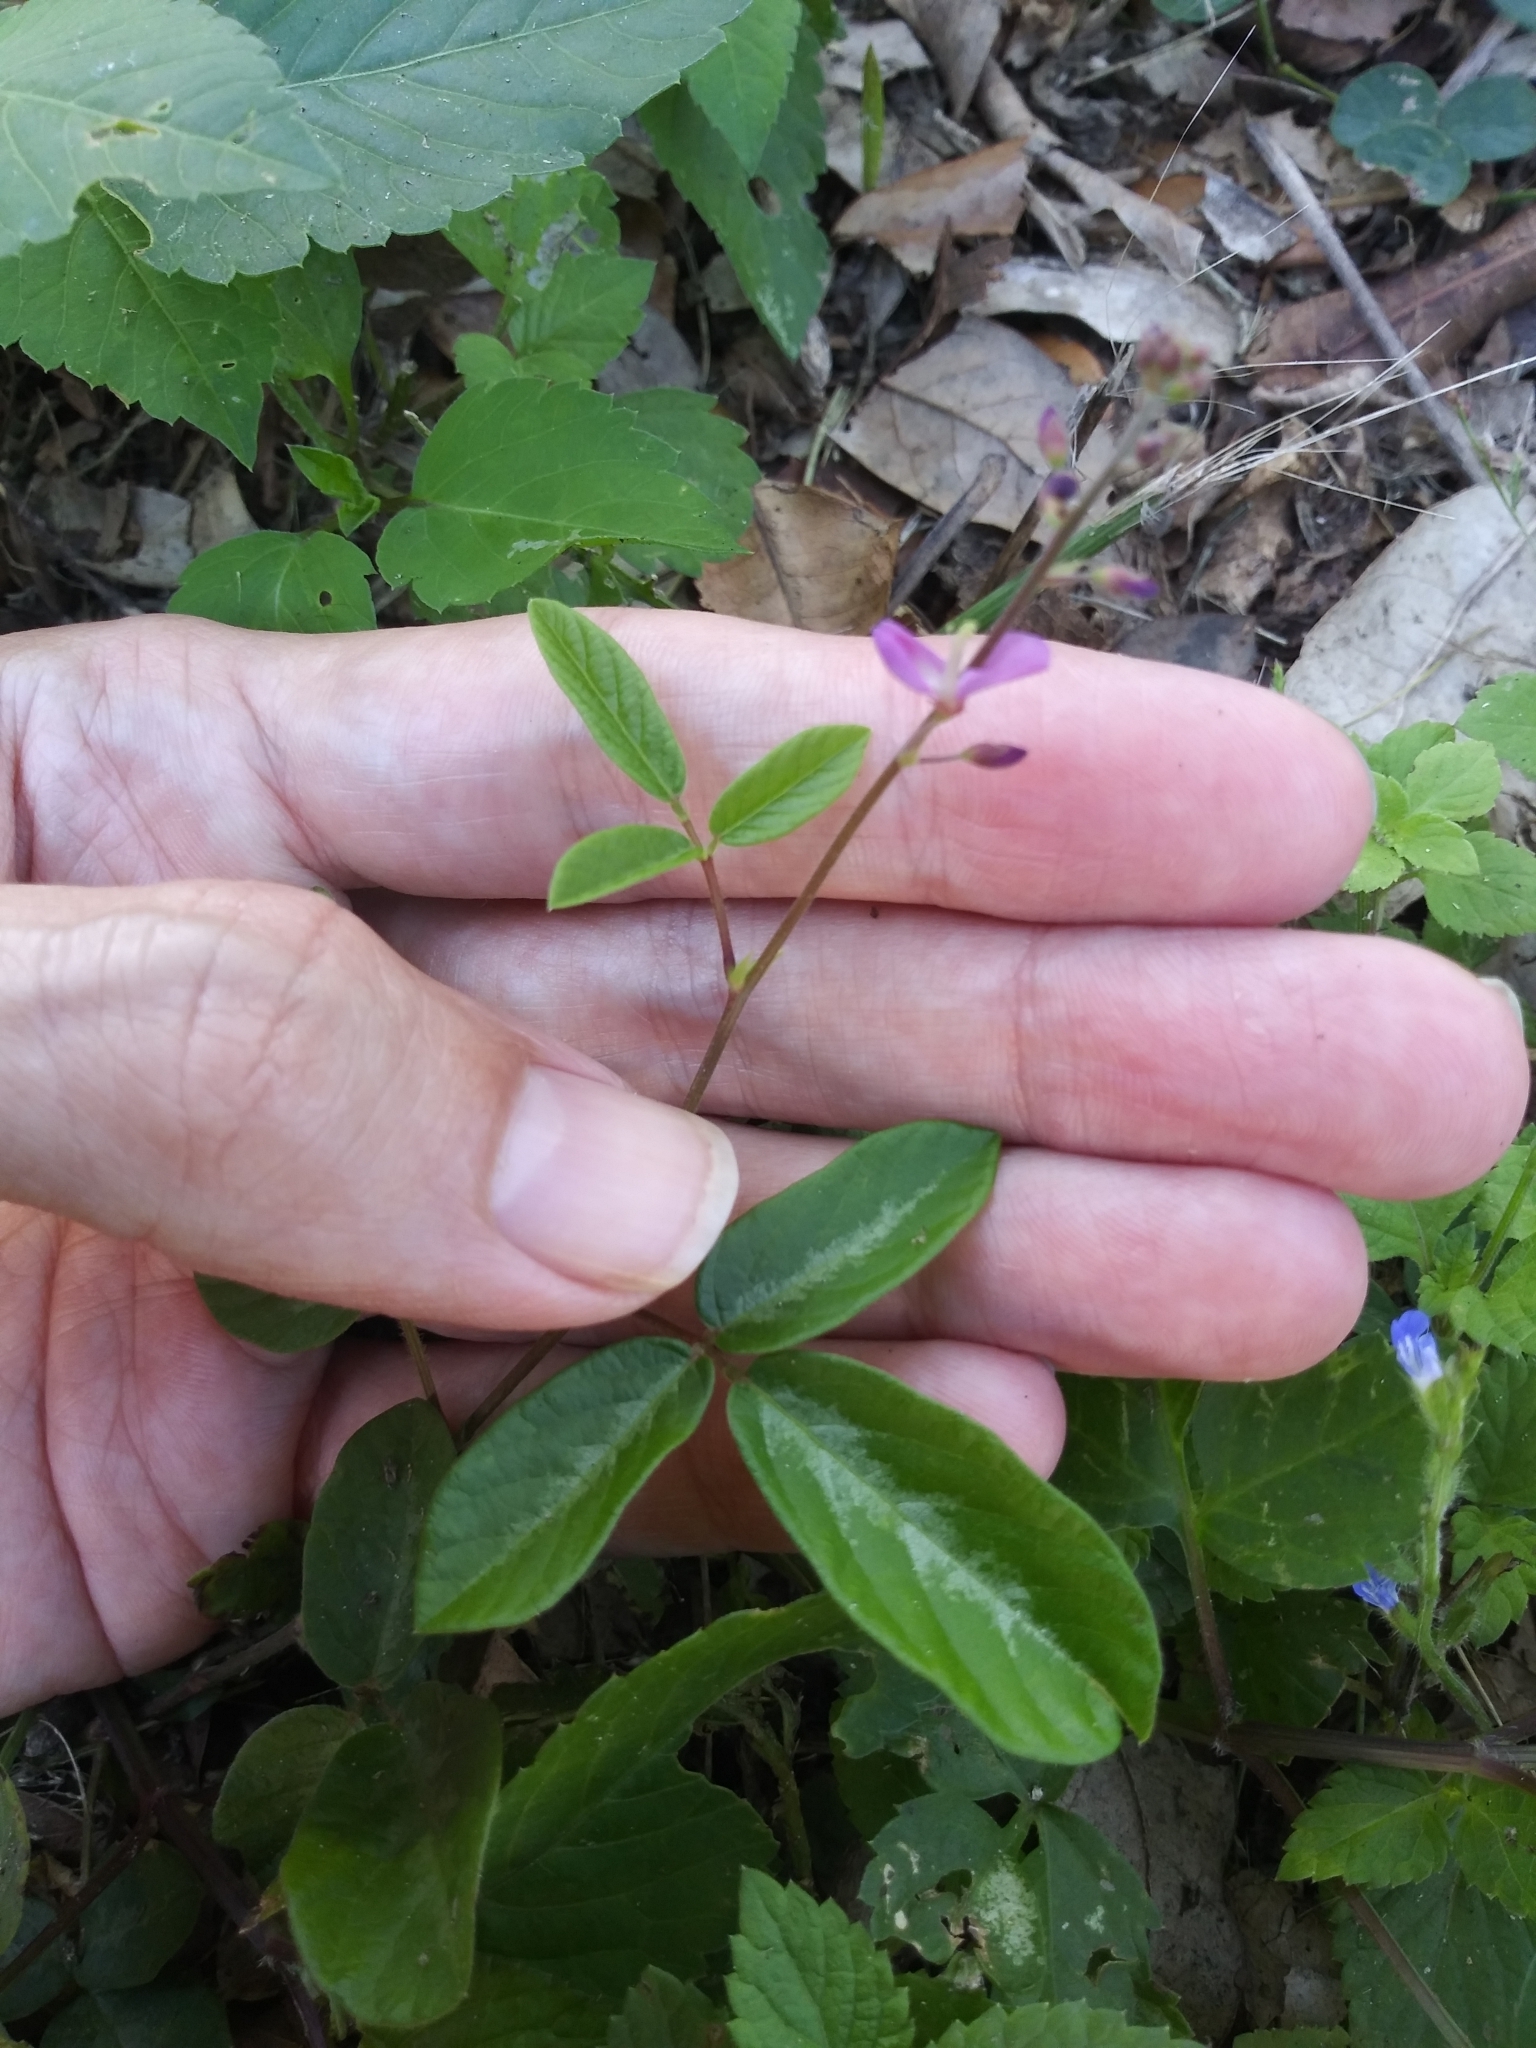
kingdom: Plantae
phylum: Tracheophyta
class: Magnoliopsida
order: Fabales
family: Fabaceae
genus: Desmodium
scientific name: Desmodium incanum
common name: Tickclover
